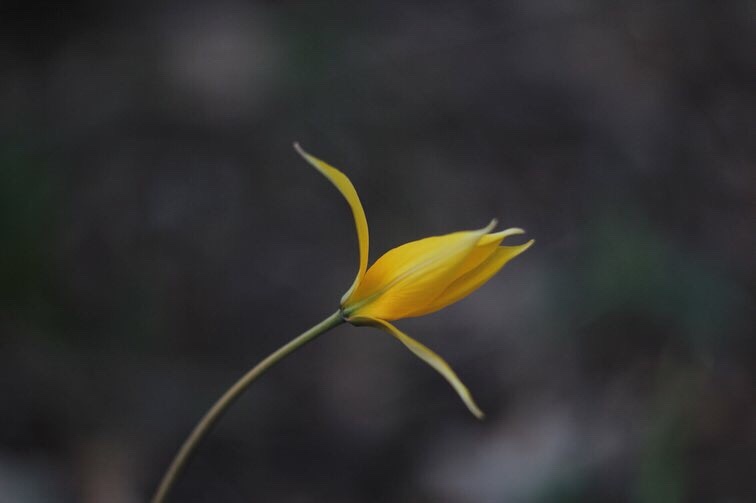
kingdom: Plantae
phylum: Tracheophyta
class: Liliopsida
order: Liliales
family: Liliaceae
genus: Tulipa
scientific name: Tulipa sylvestris
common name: Wild tulip
